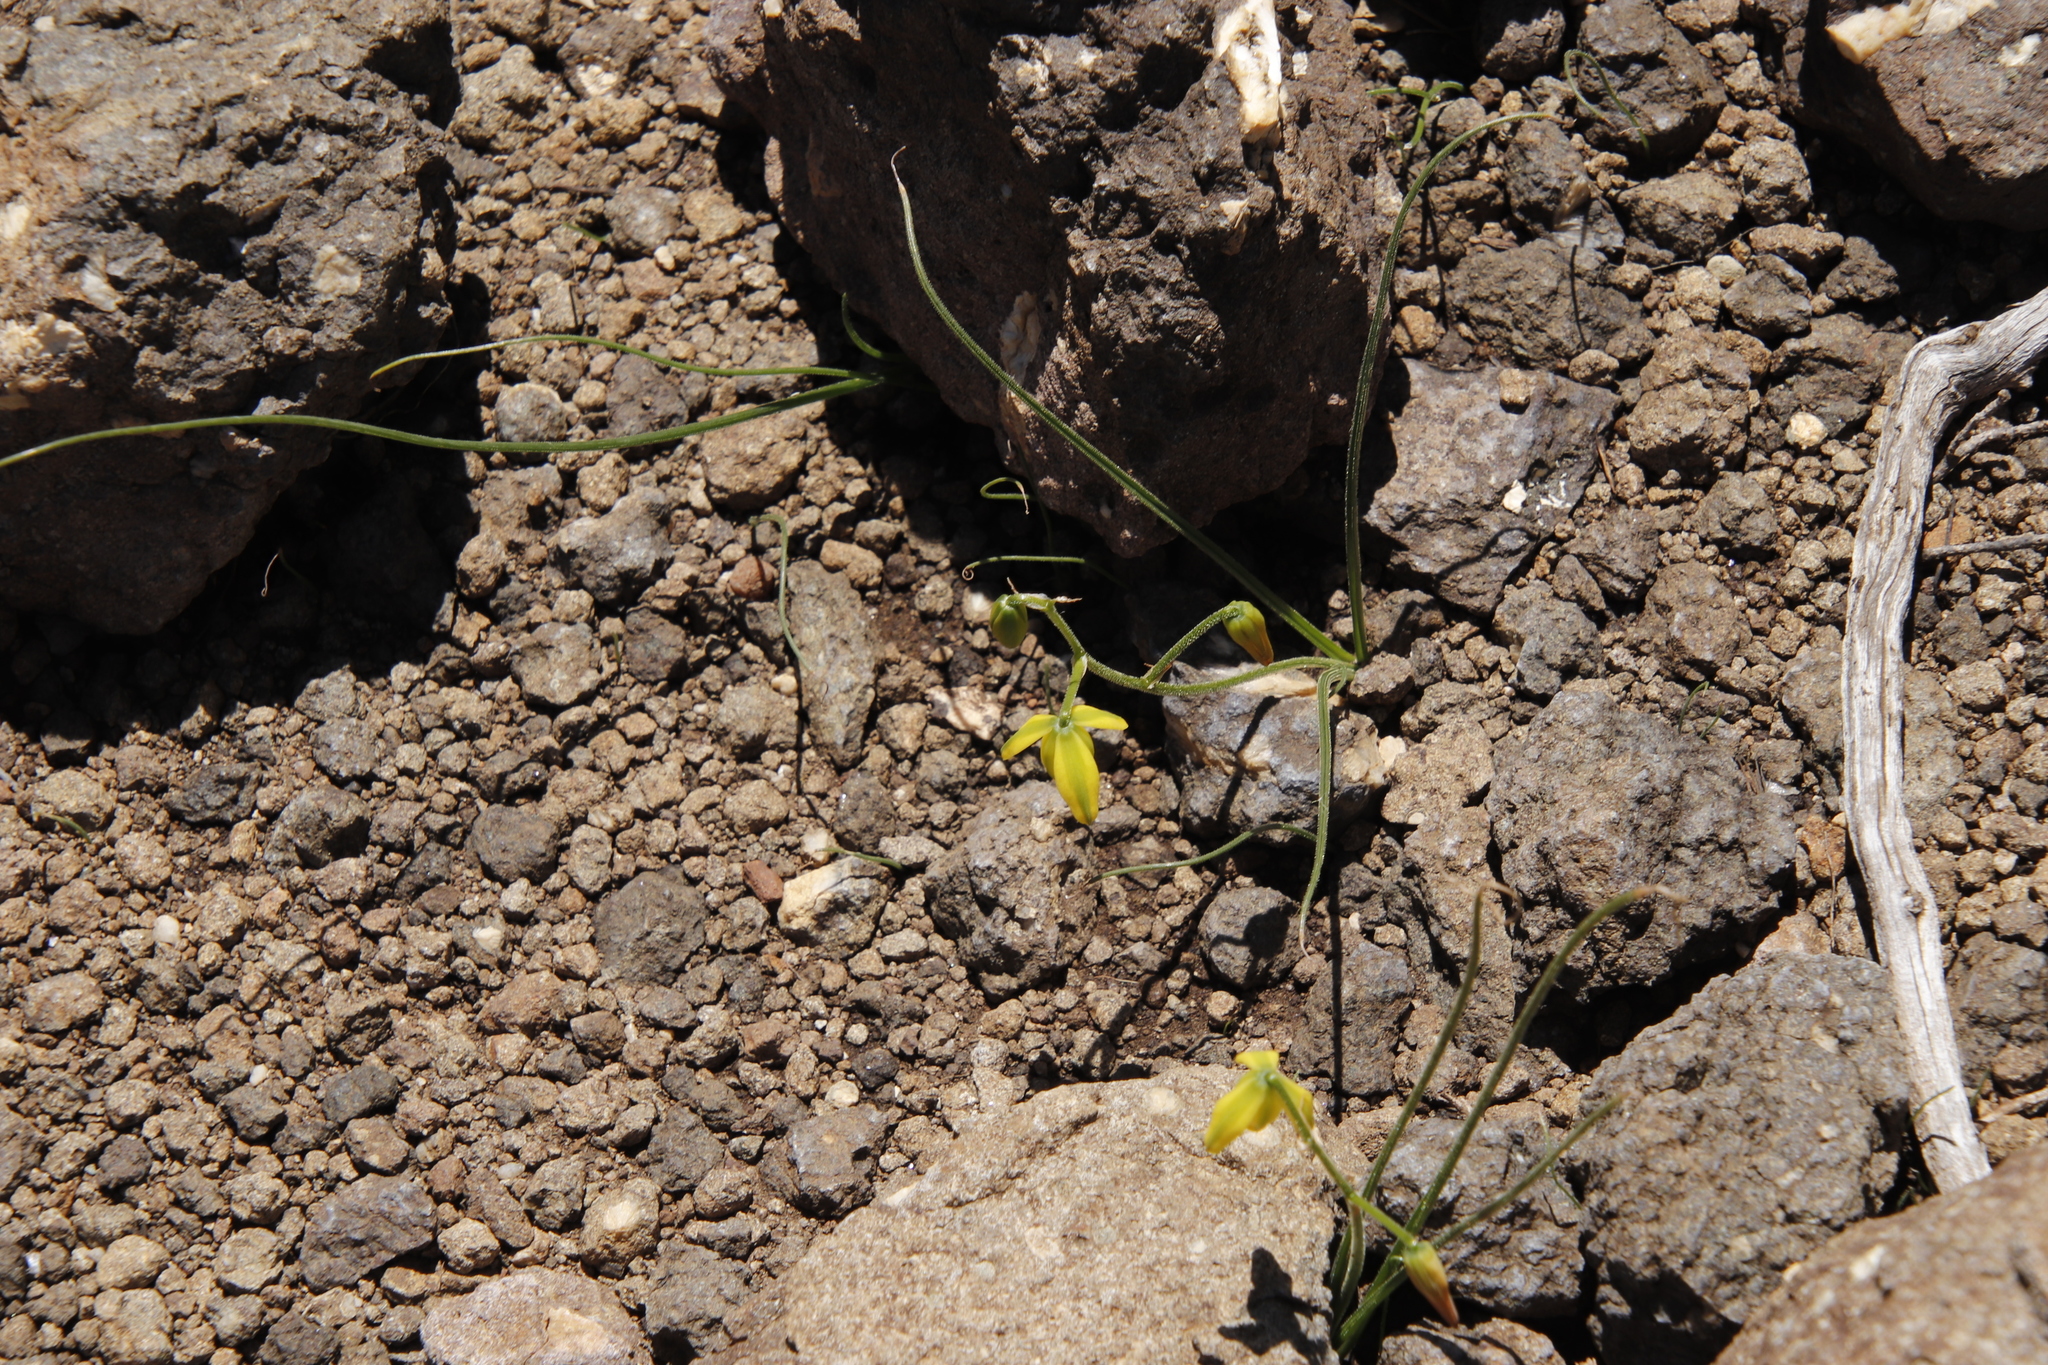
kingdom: Plantae
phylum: Tracheophyta
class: Liliopsida
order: Asparagales
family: Asparagaceae
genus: Albuca
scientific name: Albuca shawii
